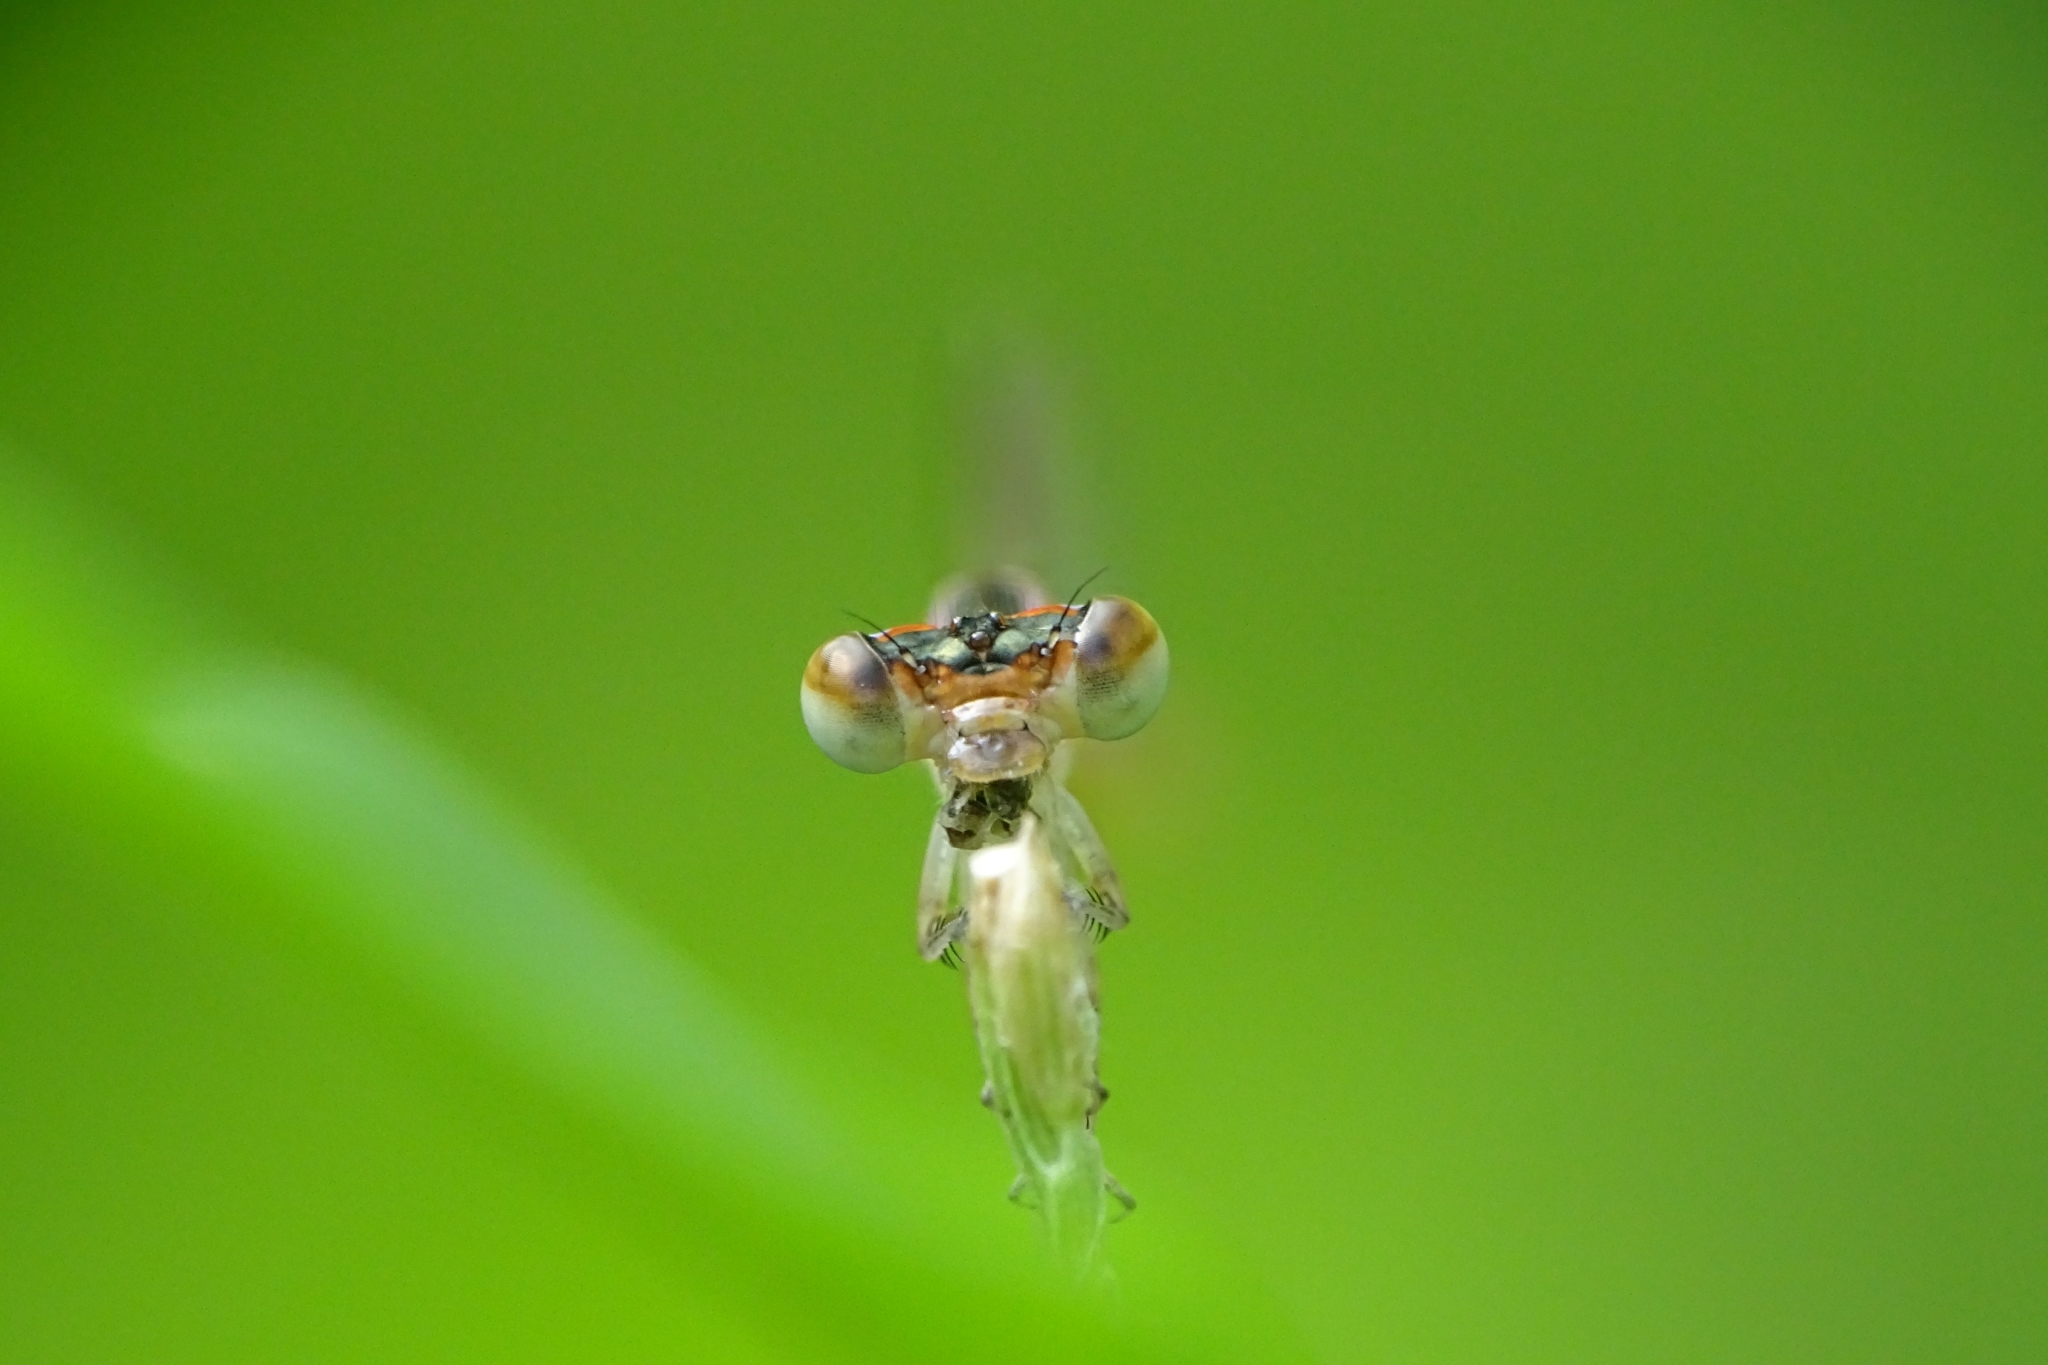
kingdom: Animalia
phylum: Arthropoda
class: Insecta
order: Odonata
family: Coenagrionidae
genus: Agriocnemis
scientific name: Agriocnemis pygmaea
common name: Pygmy wisp
